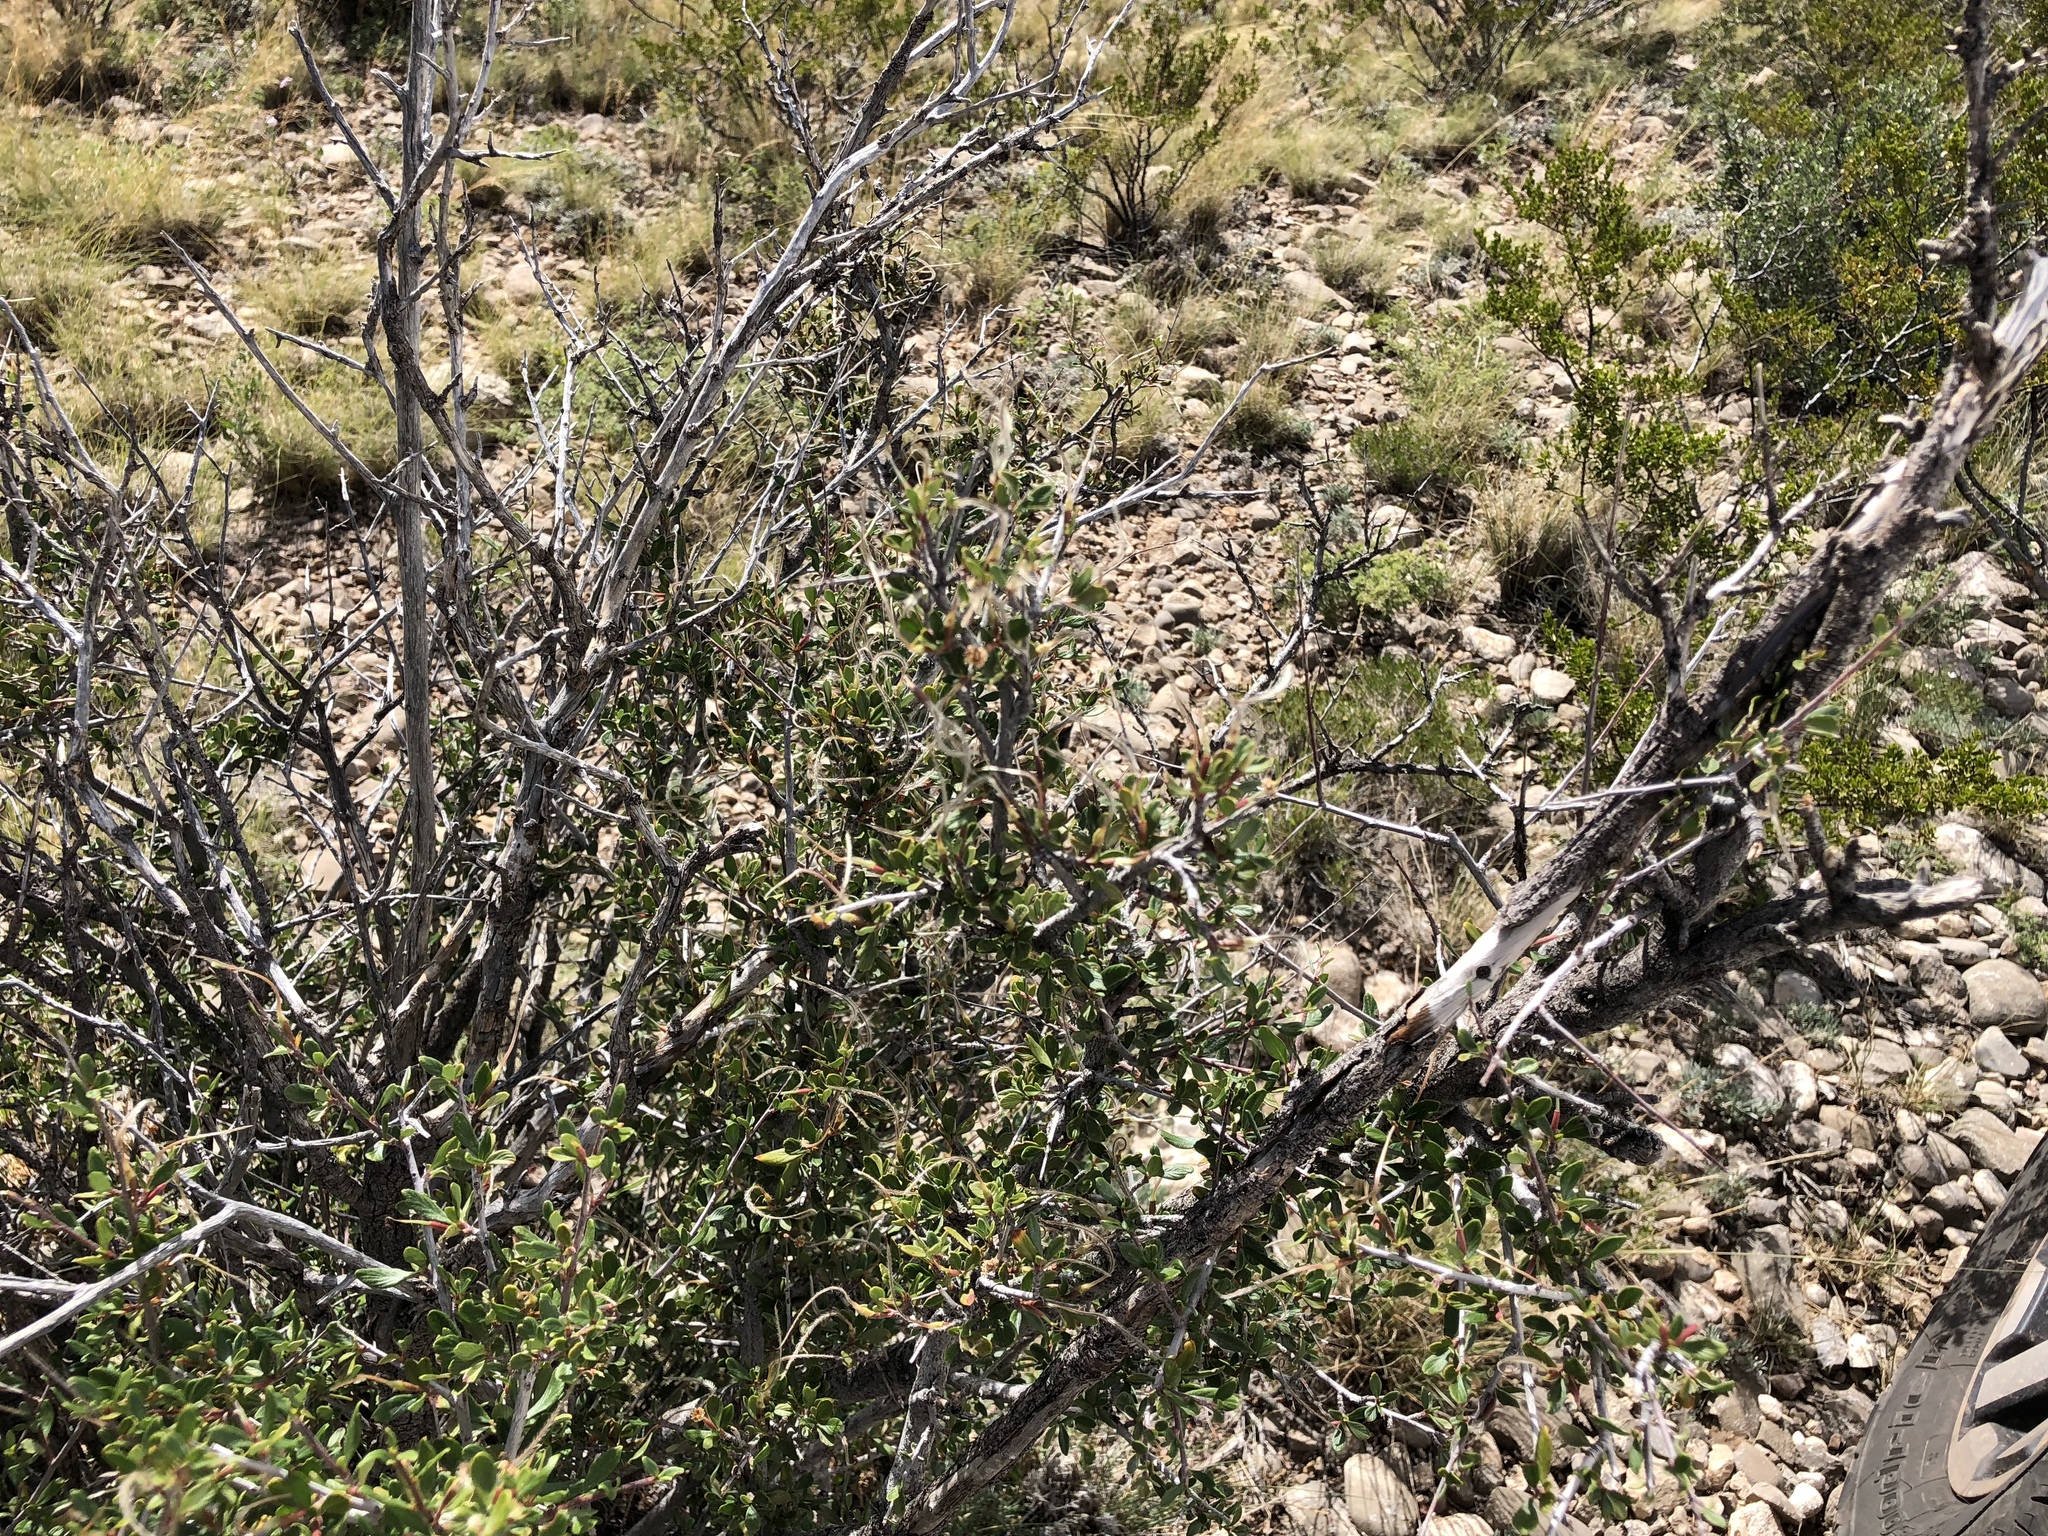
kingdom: Plantae
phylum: Tracheophyta
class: Magnoliopsida
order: Rosales
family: Rosaceae
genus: Cercocarpus
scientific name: Cercocarpus breviflorus
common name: Wright's mountain-mahogany
